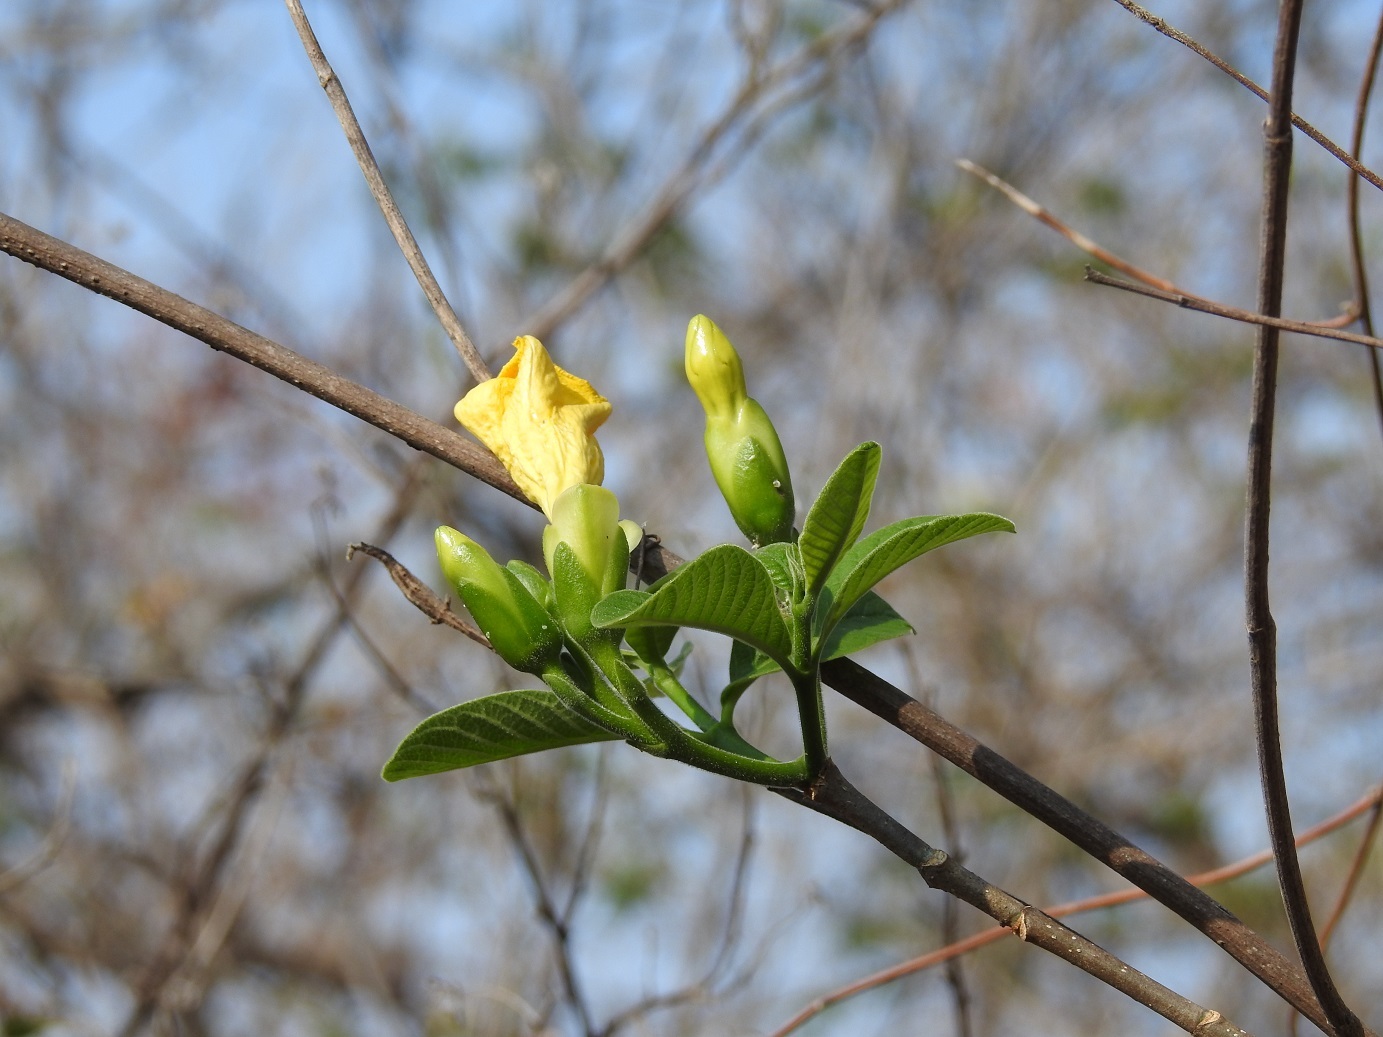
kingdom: Plantae
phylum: Tracheophyta
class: Magnoliopsida
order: Gentianales
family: Apocynaceae
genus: Tabernaemontana
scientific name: Tabernaemontana glabra
